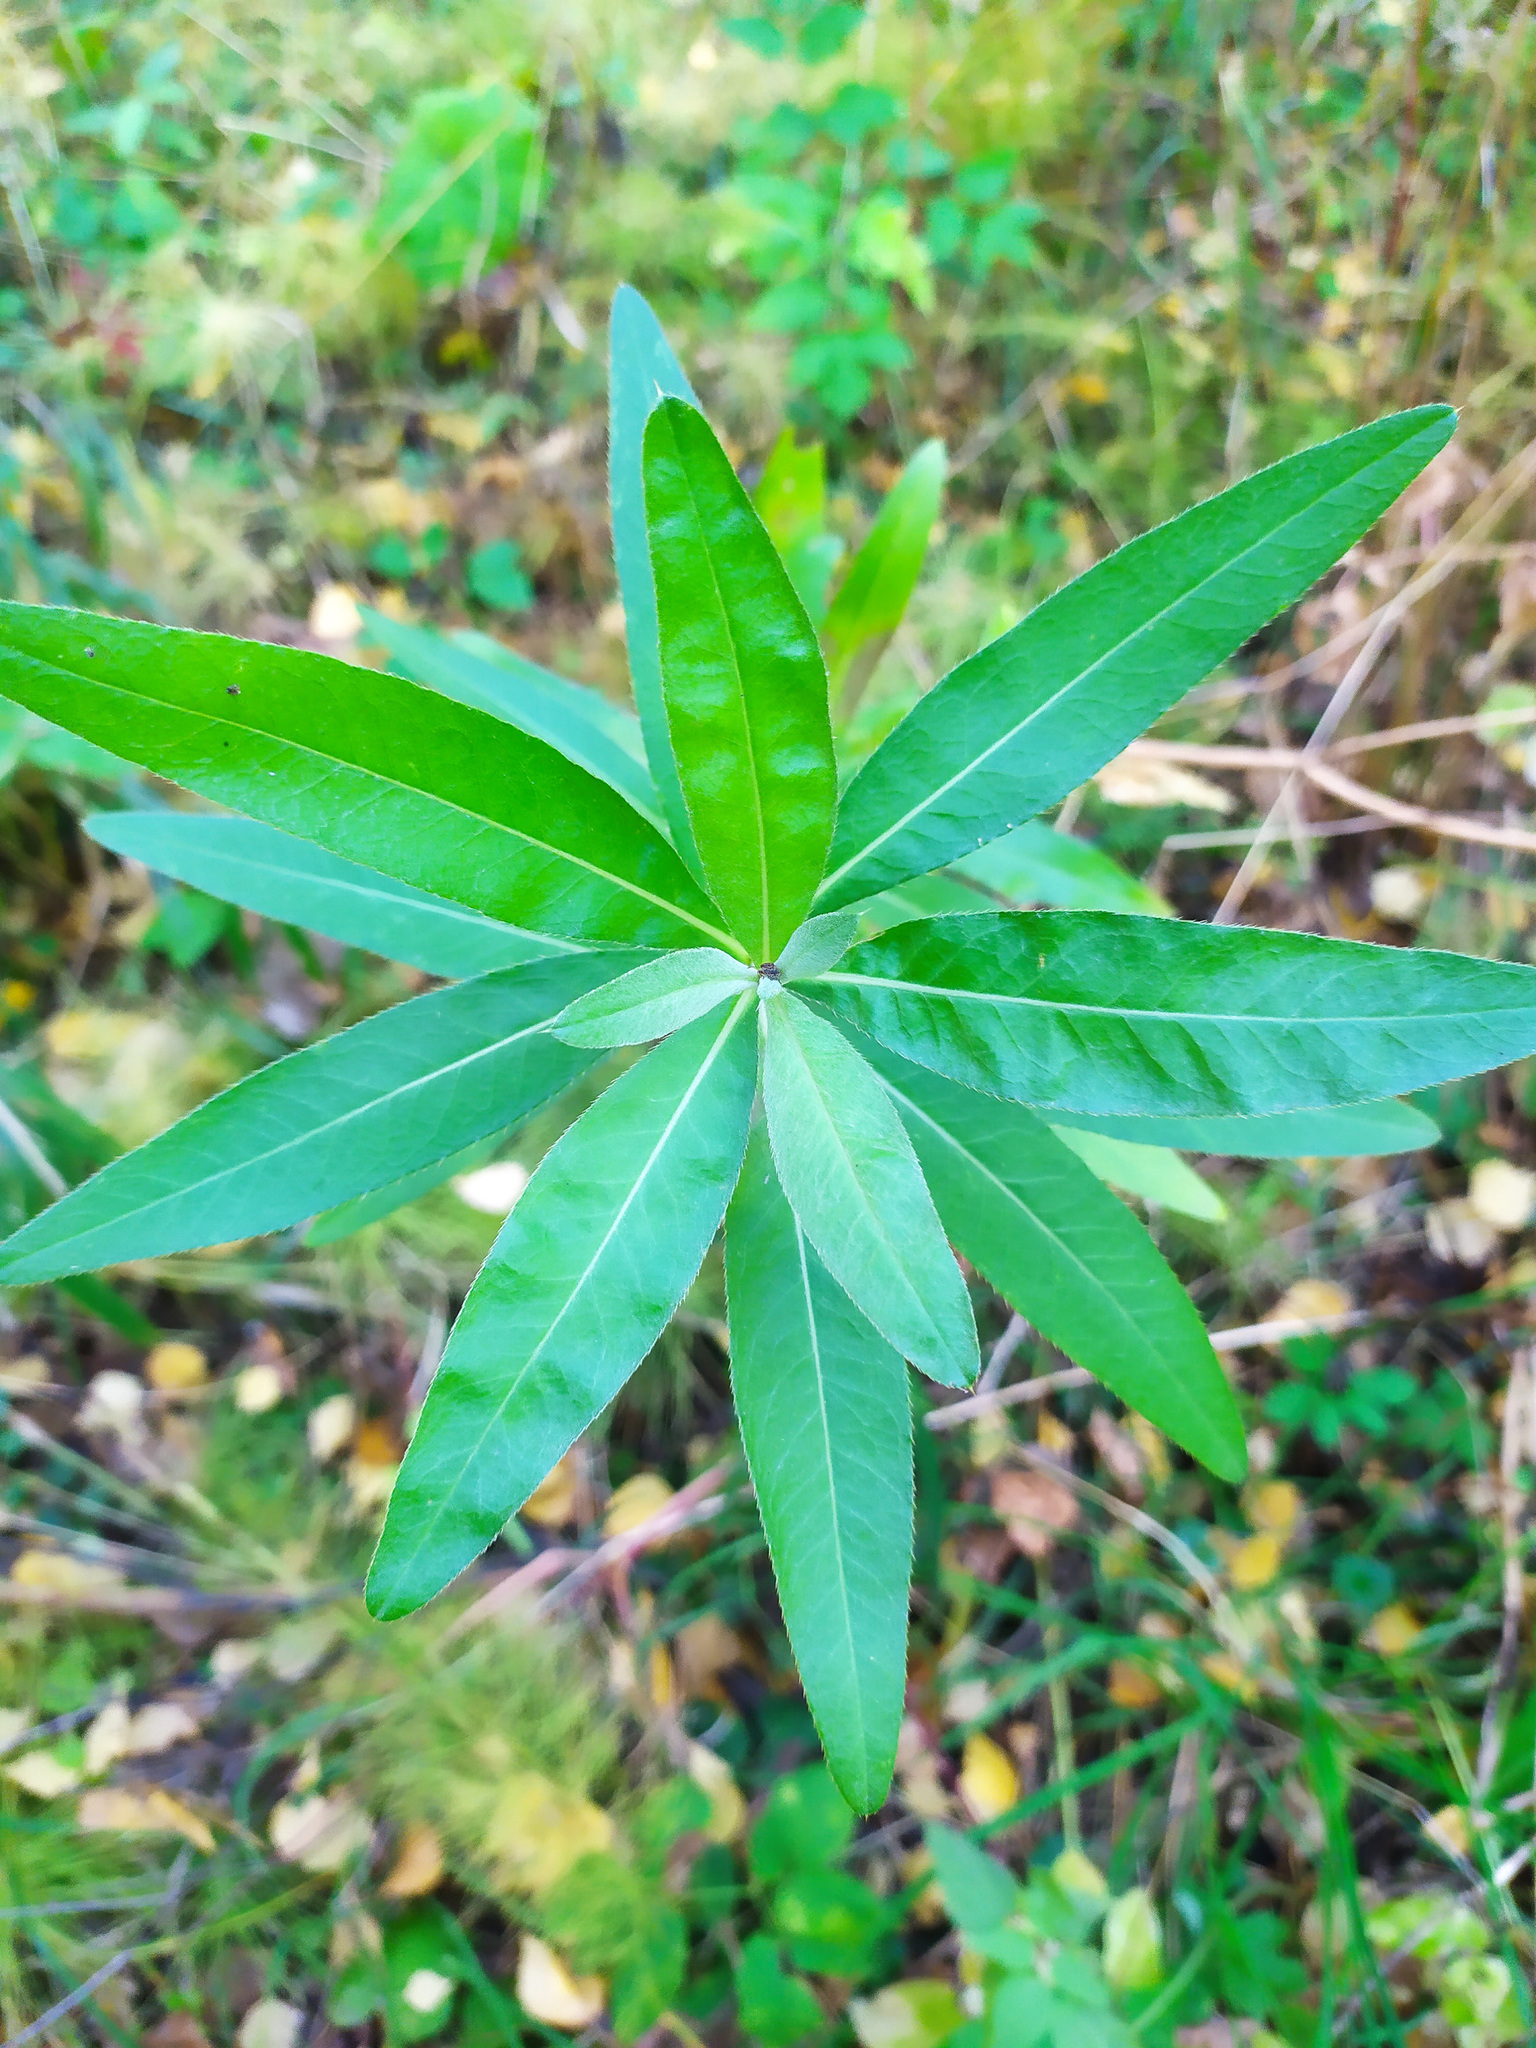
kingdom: Plantae
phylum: Tracheophyta
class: Magnoliopsida
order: Asterales
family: Asteraceae
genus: Cirsium
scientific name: Cirsium arvense
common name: Creeping thistle
